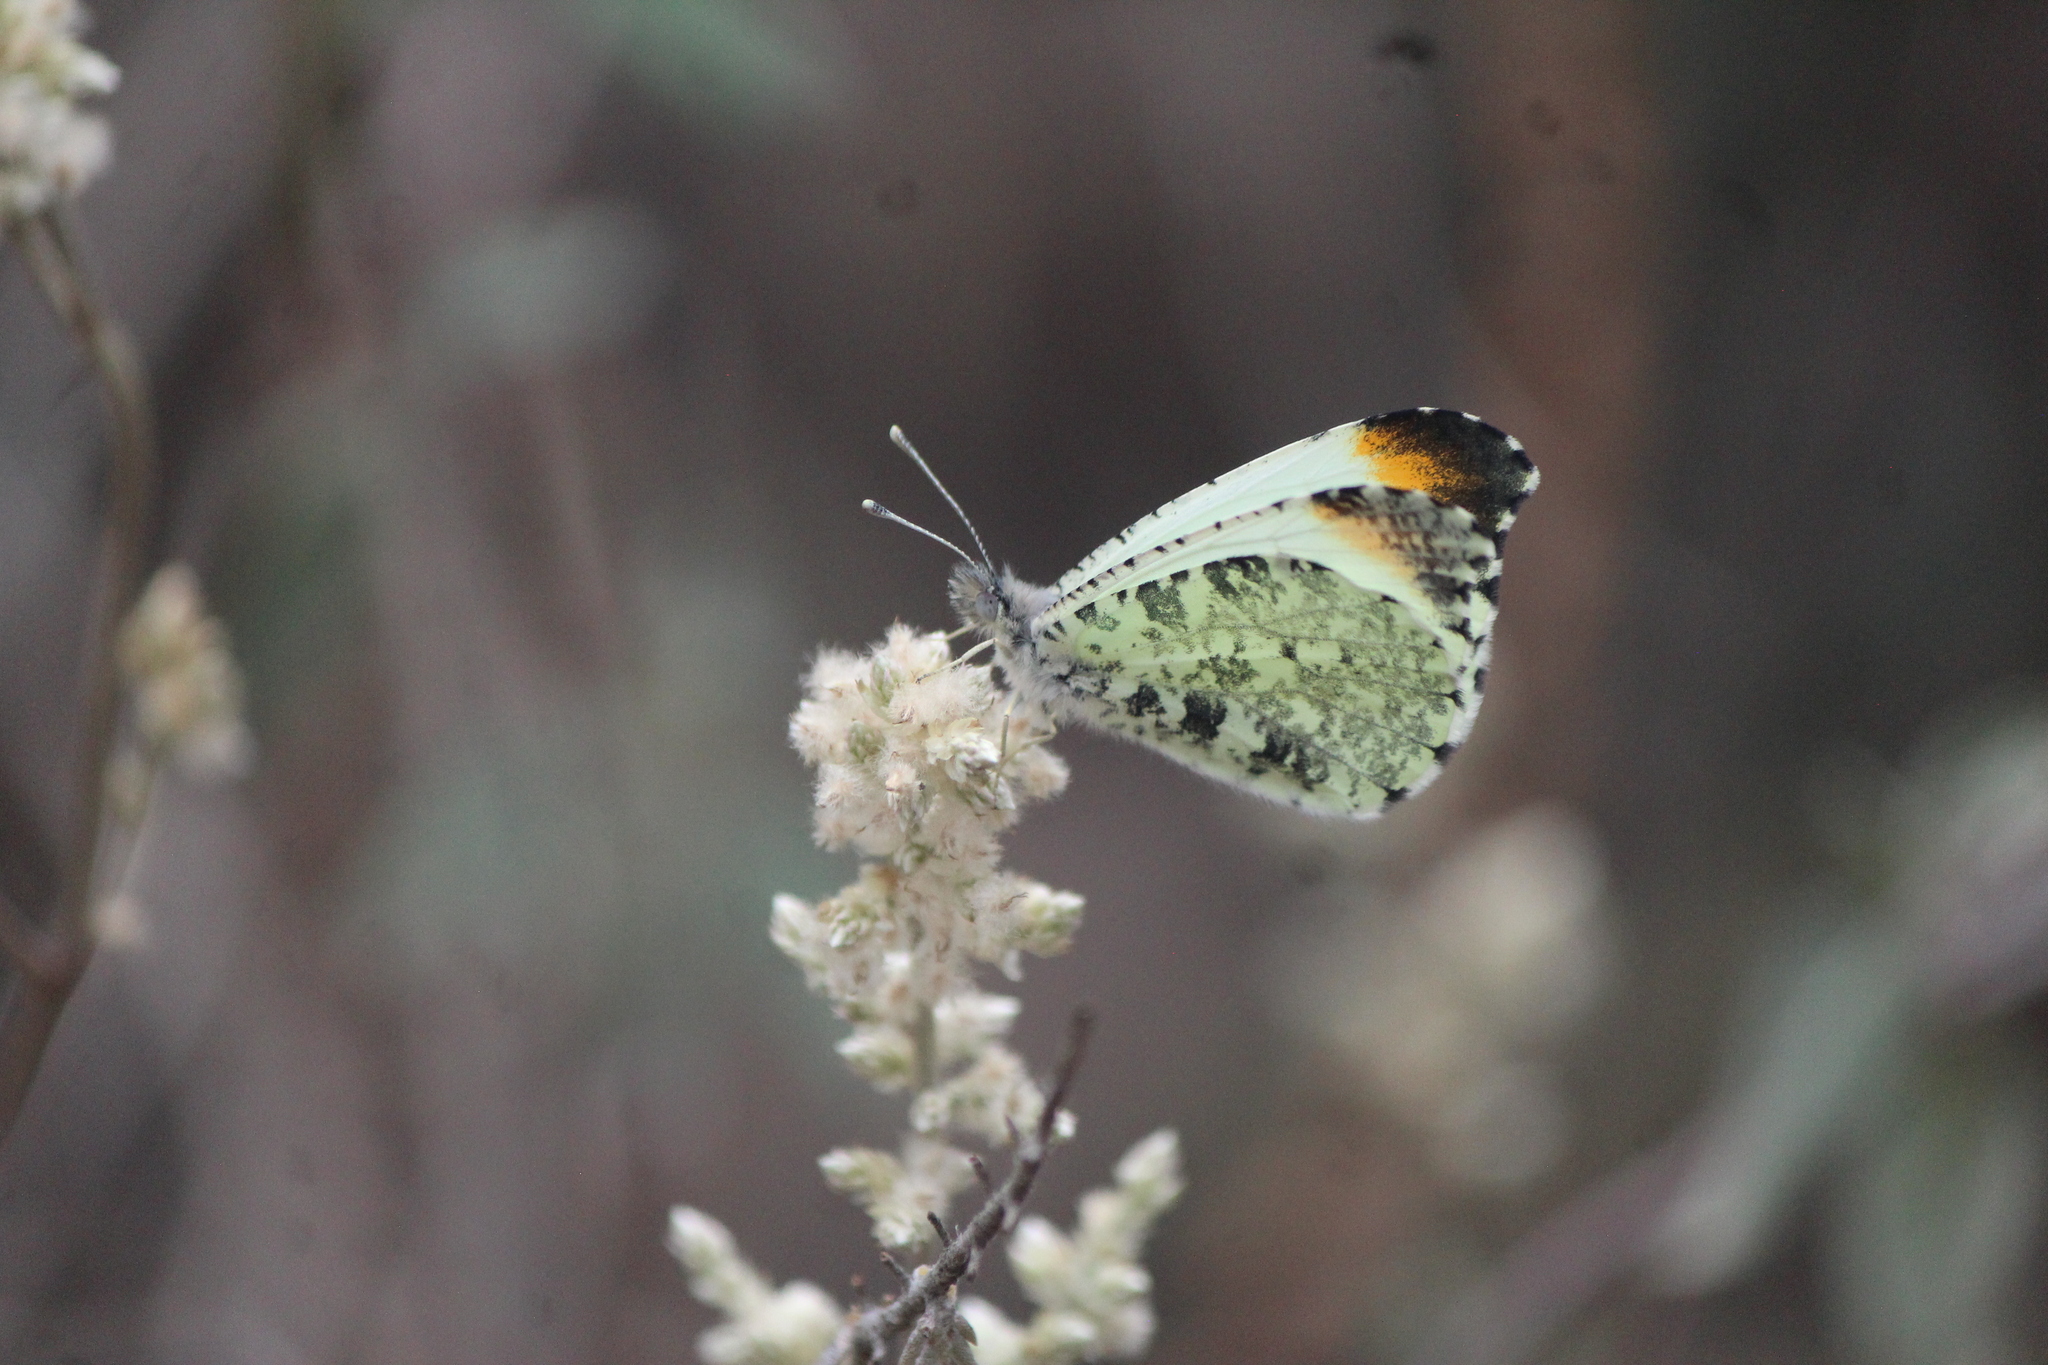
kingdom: Animalia
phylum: Arthropoda
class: Insecta
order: Lepidoptera
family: Pieridae
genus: Anthocharis
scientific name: Anthocharis limonea
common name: Mexican orangetip
